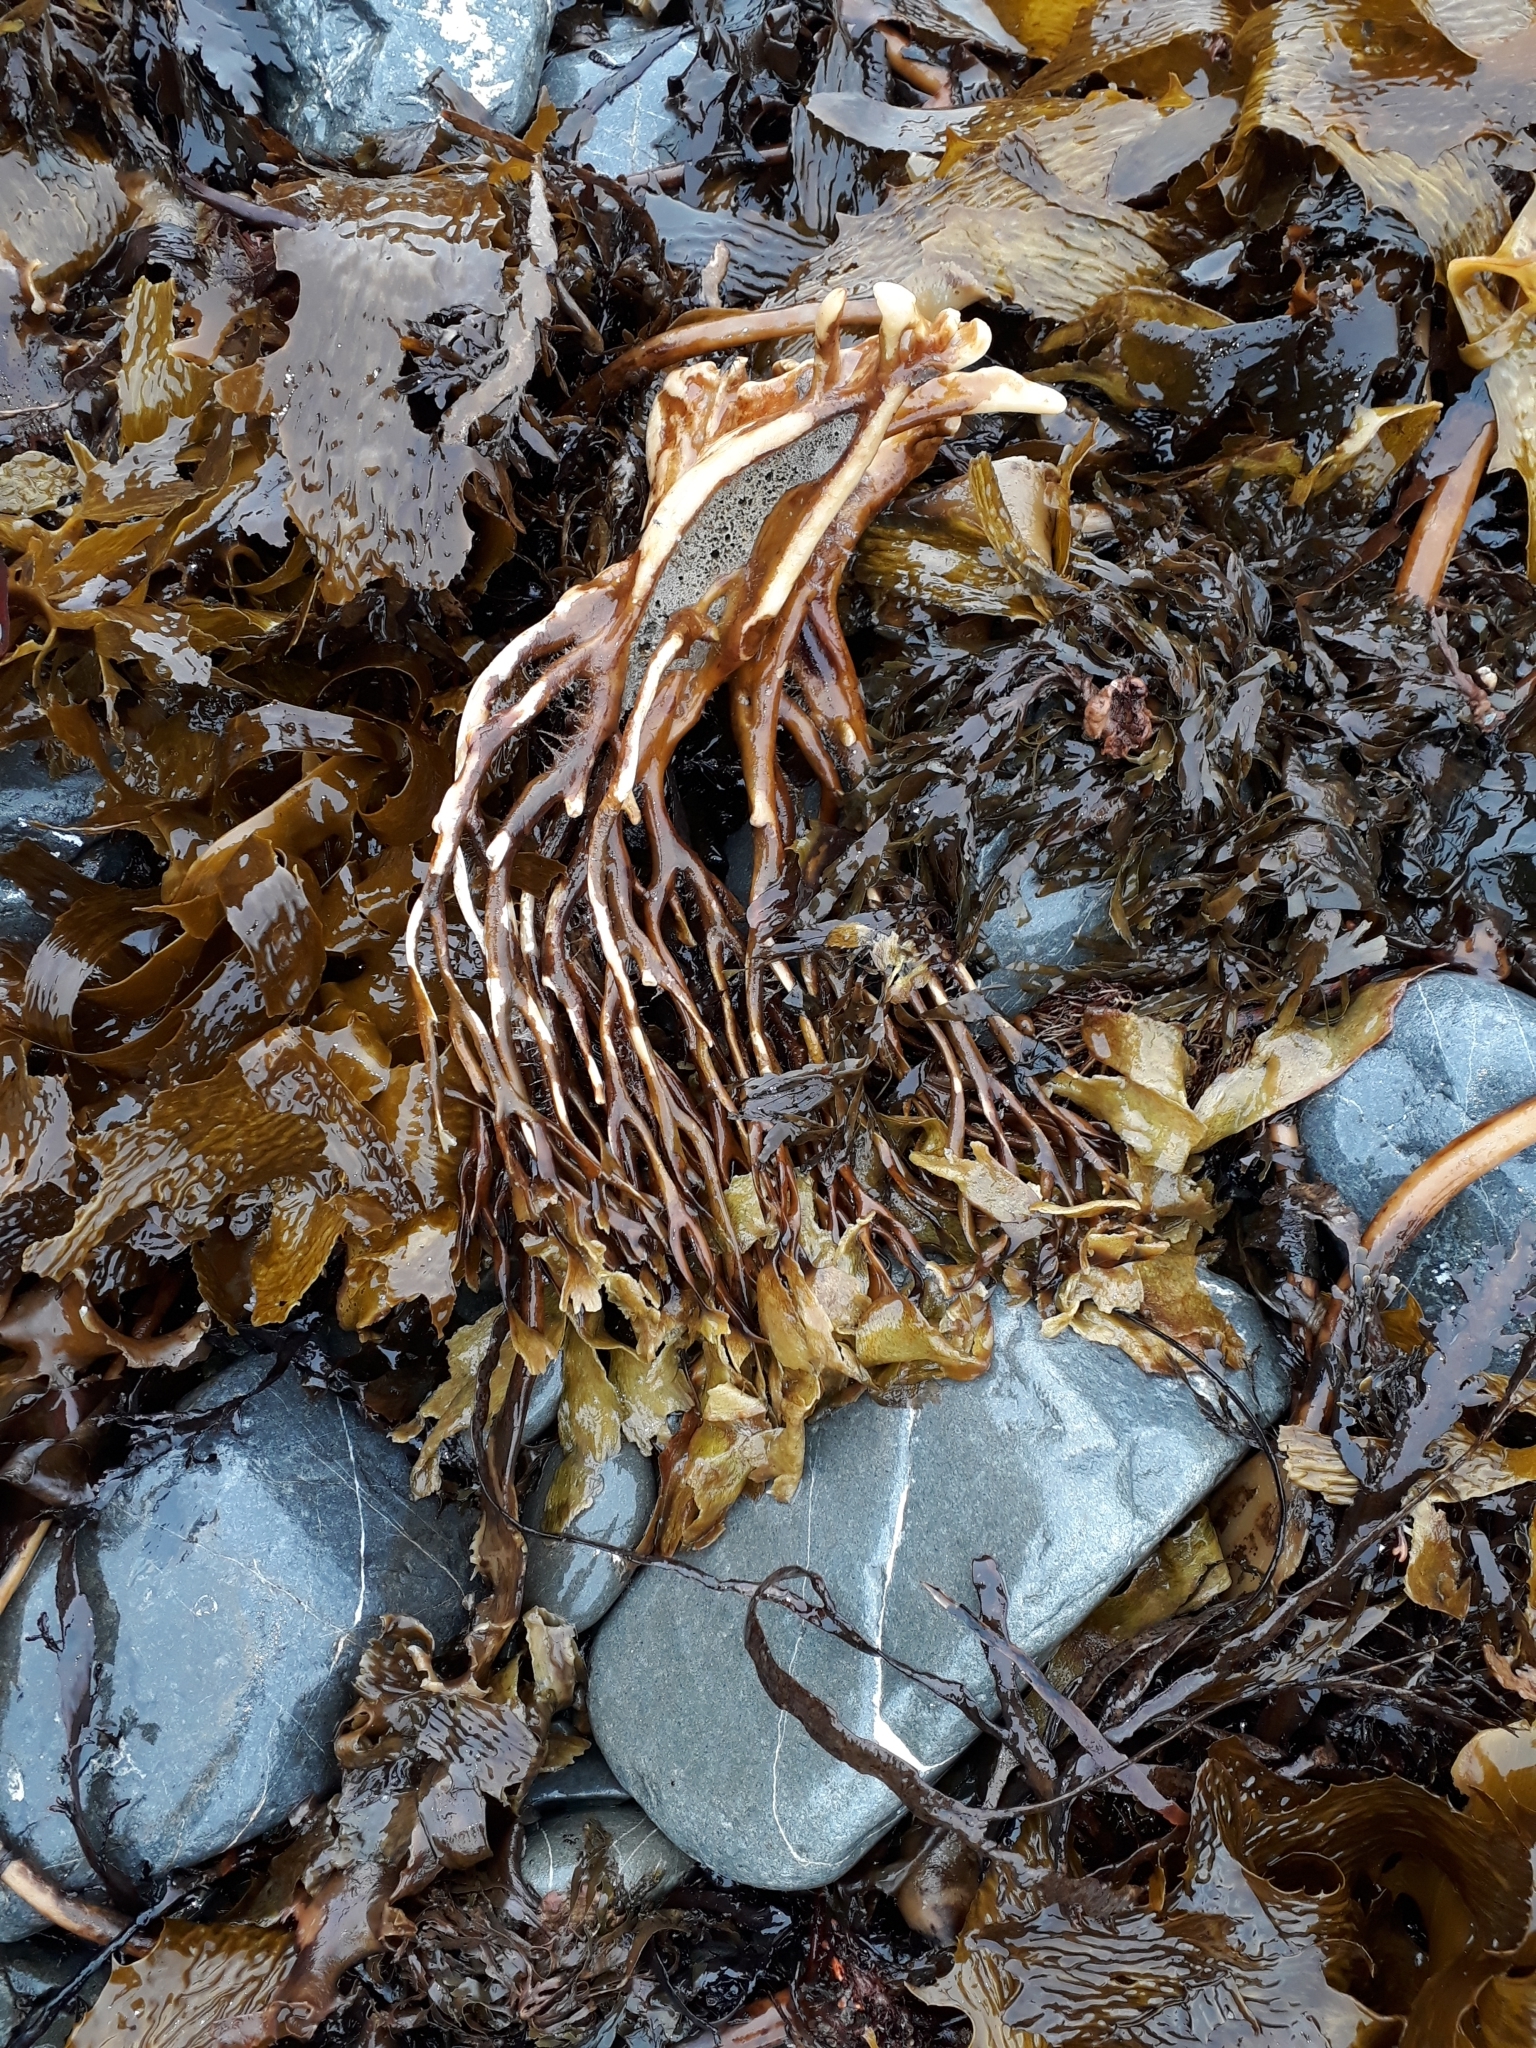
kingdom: Chromista
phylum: Ochrophyta
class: Phaeophyceae
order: Laminariales
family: Lessoniaceae
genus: Lessonia
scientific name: Lessonia variegata
